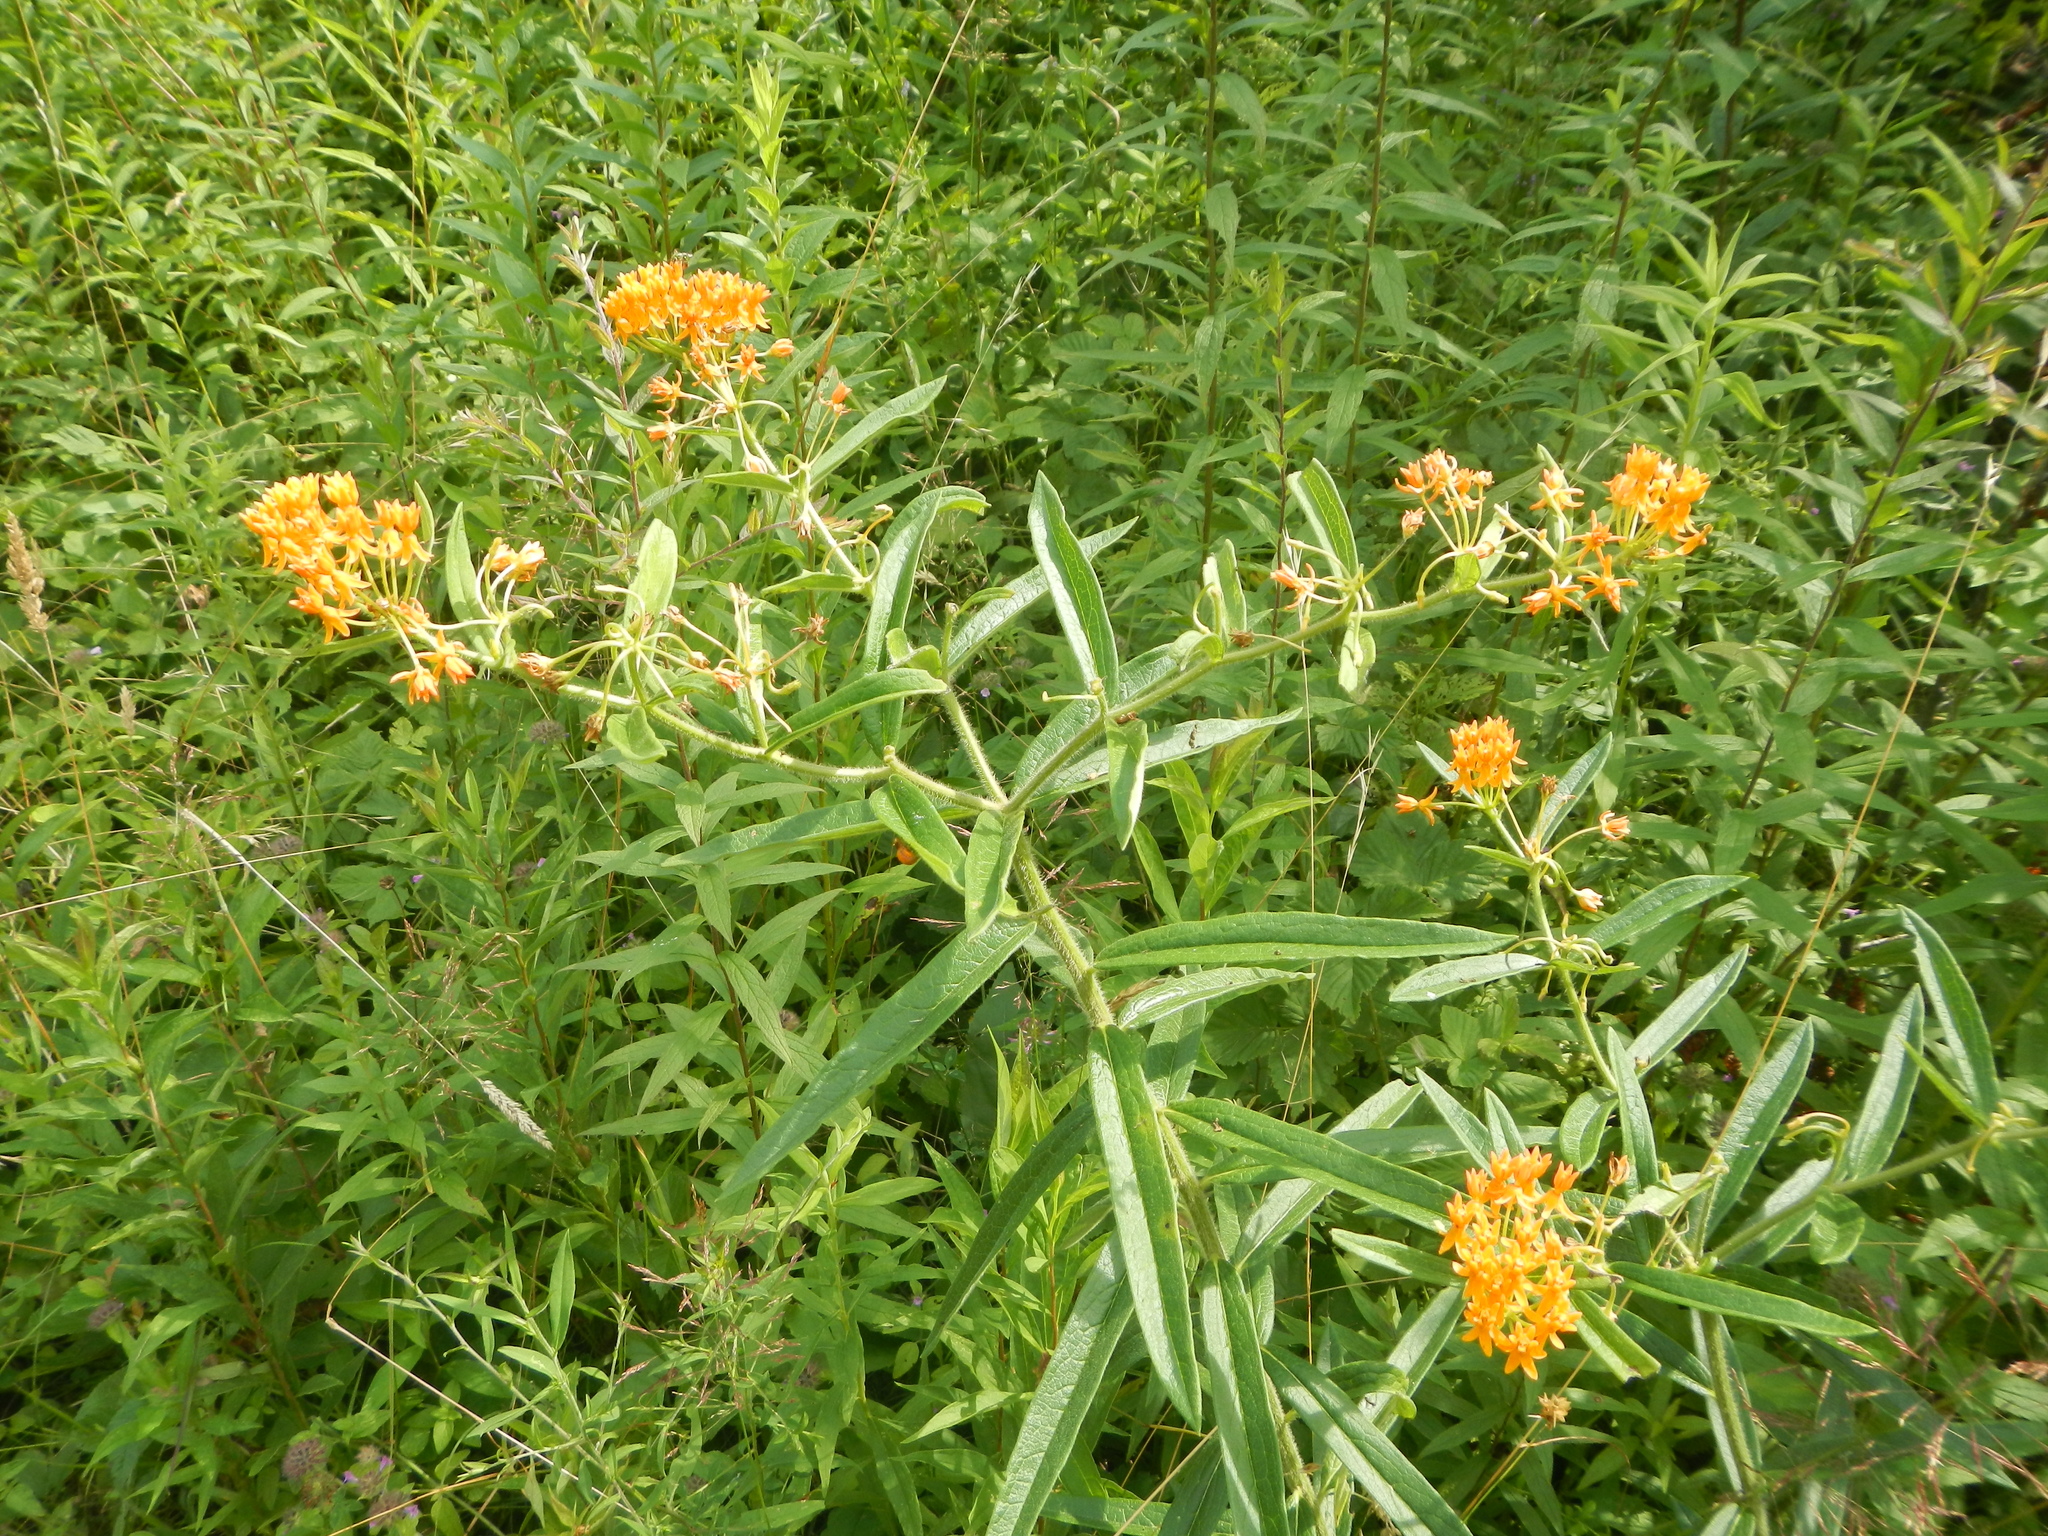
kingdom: Plantae
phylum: Tracheophyta
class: Magnoliopsida
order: Gentianales
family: Apocynaceae
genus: Asclepias
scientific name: Asclepias tuberosa
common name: Butterfly milkweed
